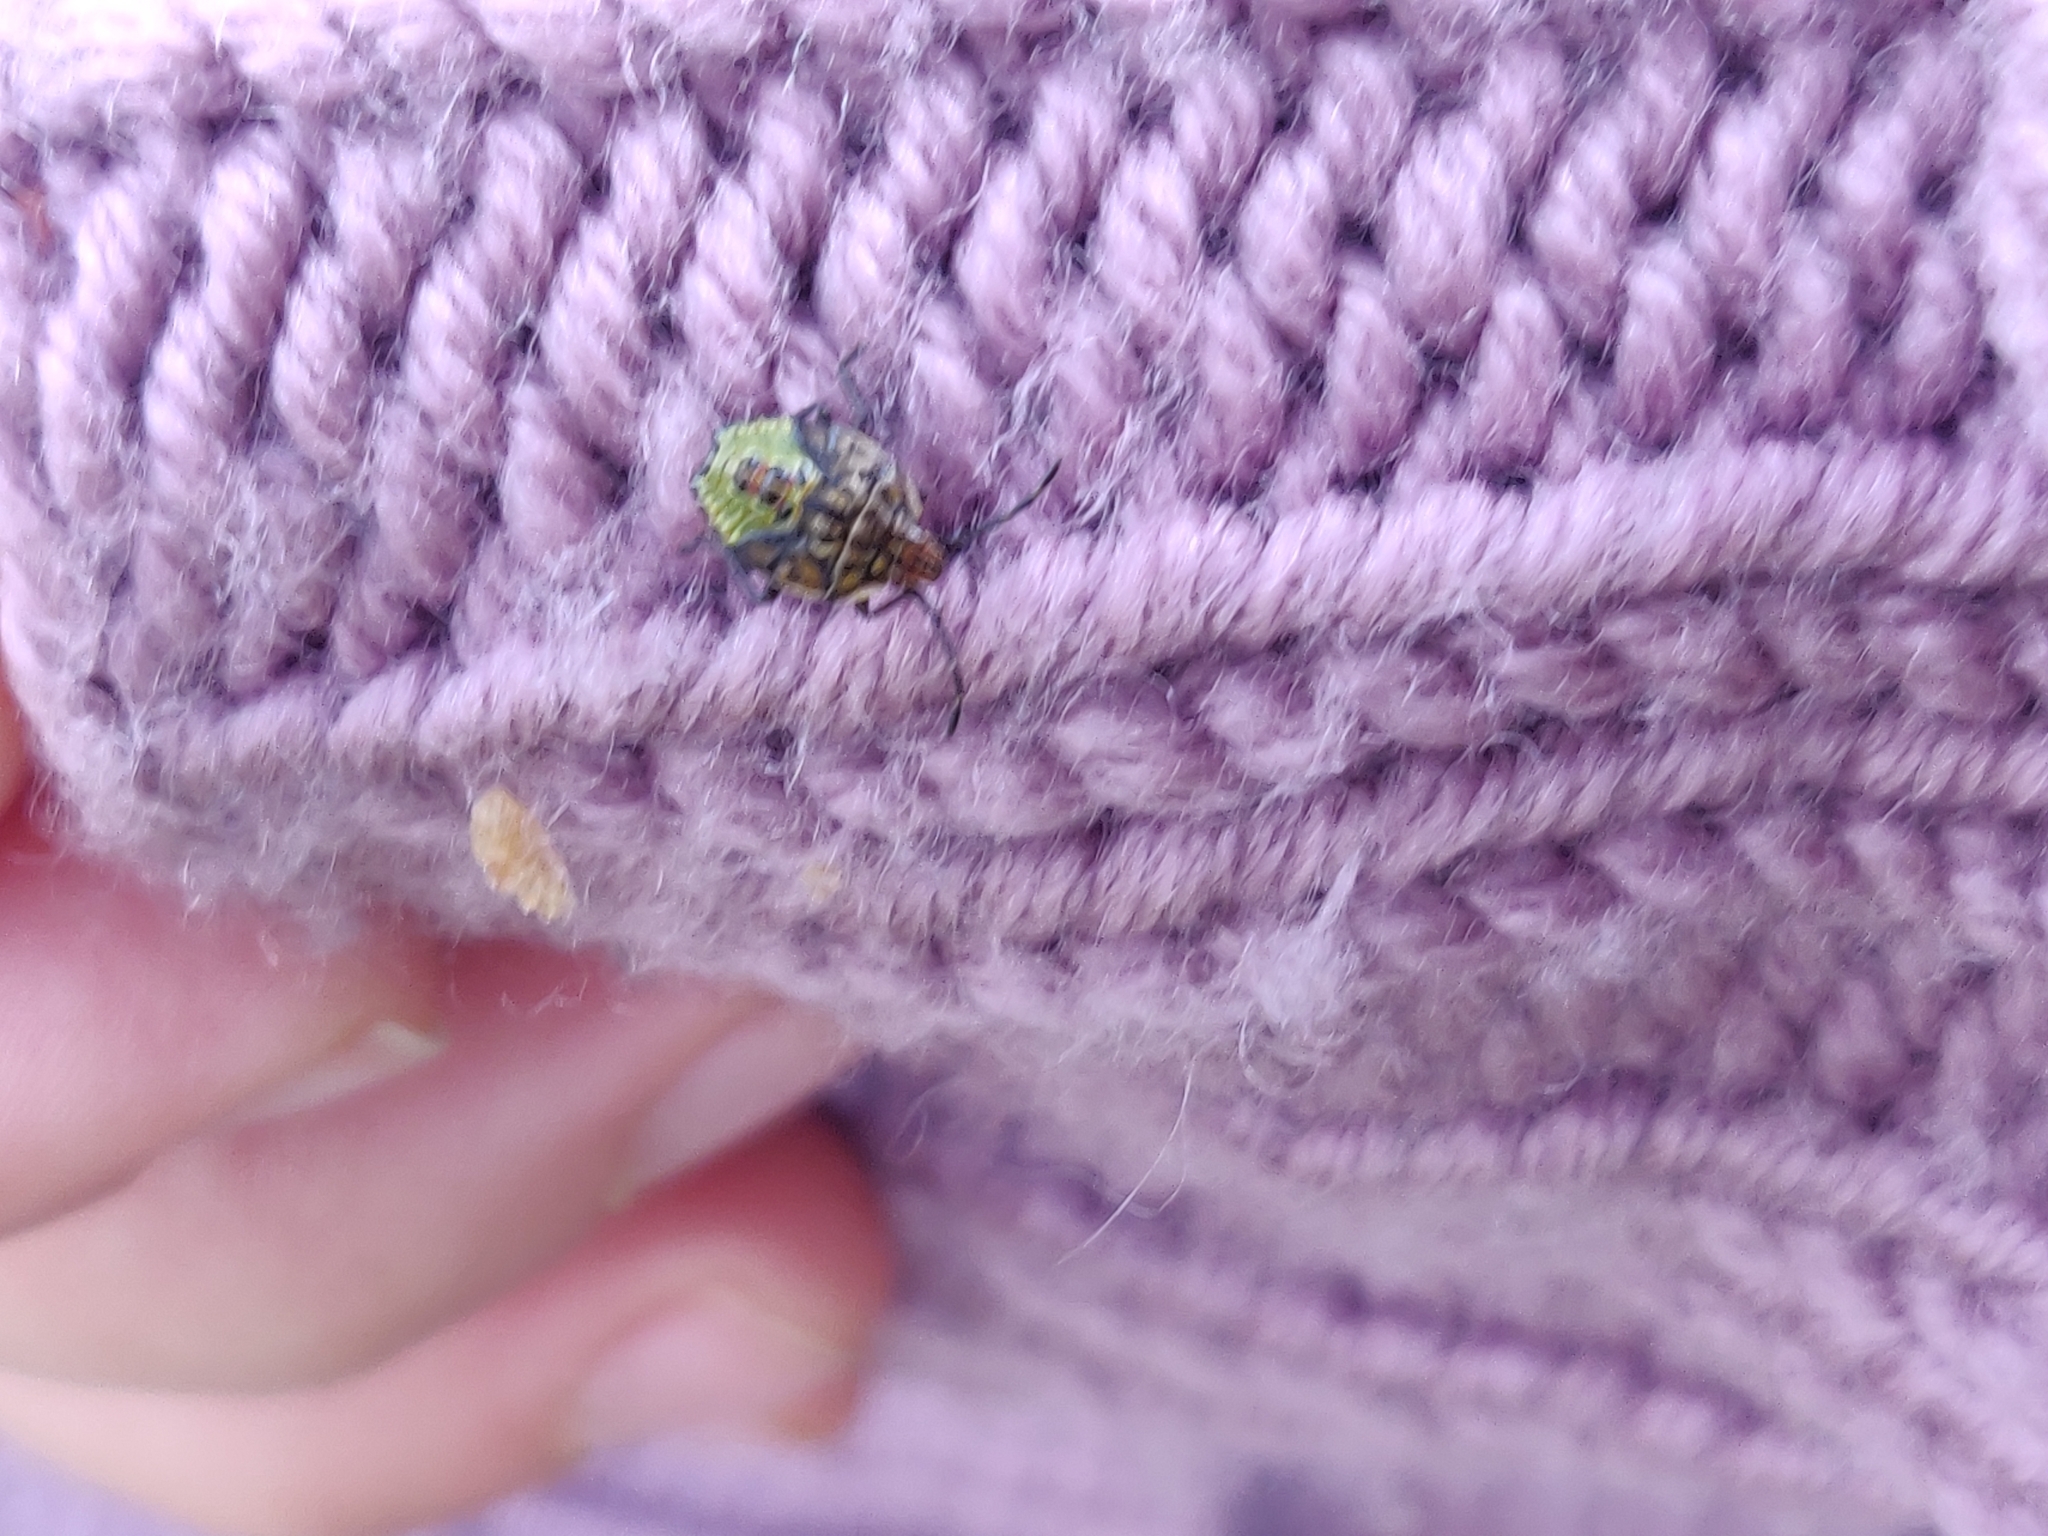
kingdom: Animalia
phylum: Arthropoda
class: Insecta
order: Hemiptera
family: Acanthosomatidae
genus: Elasmucha
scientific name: Elasmucha grisea
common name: Parent bug
